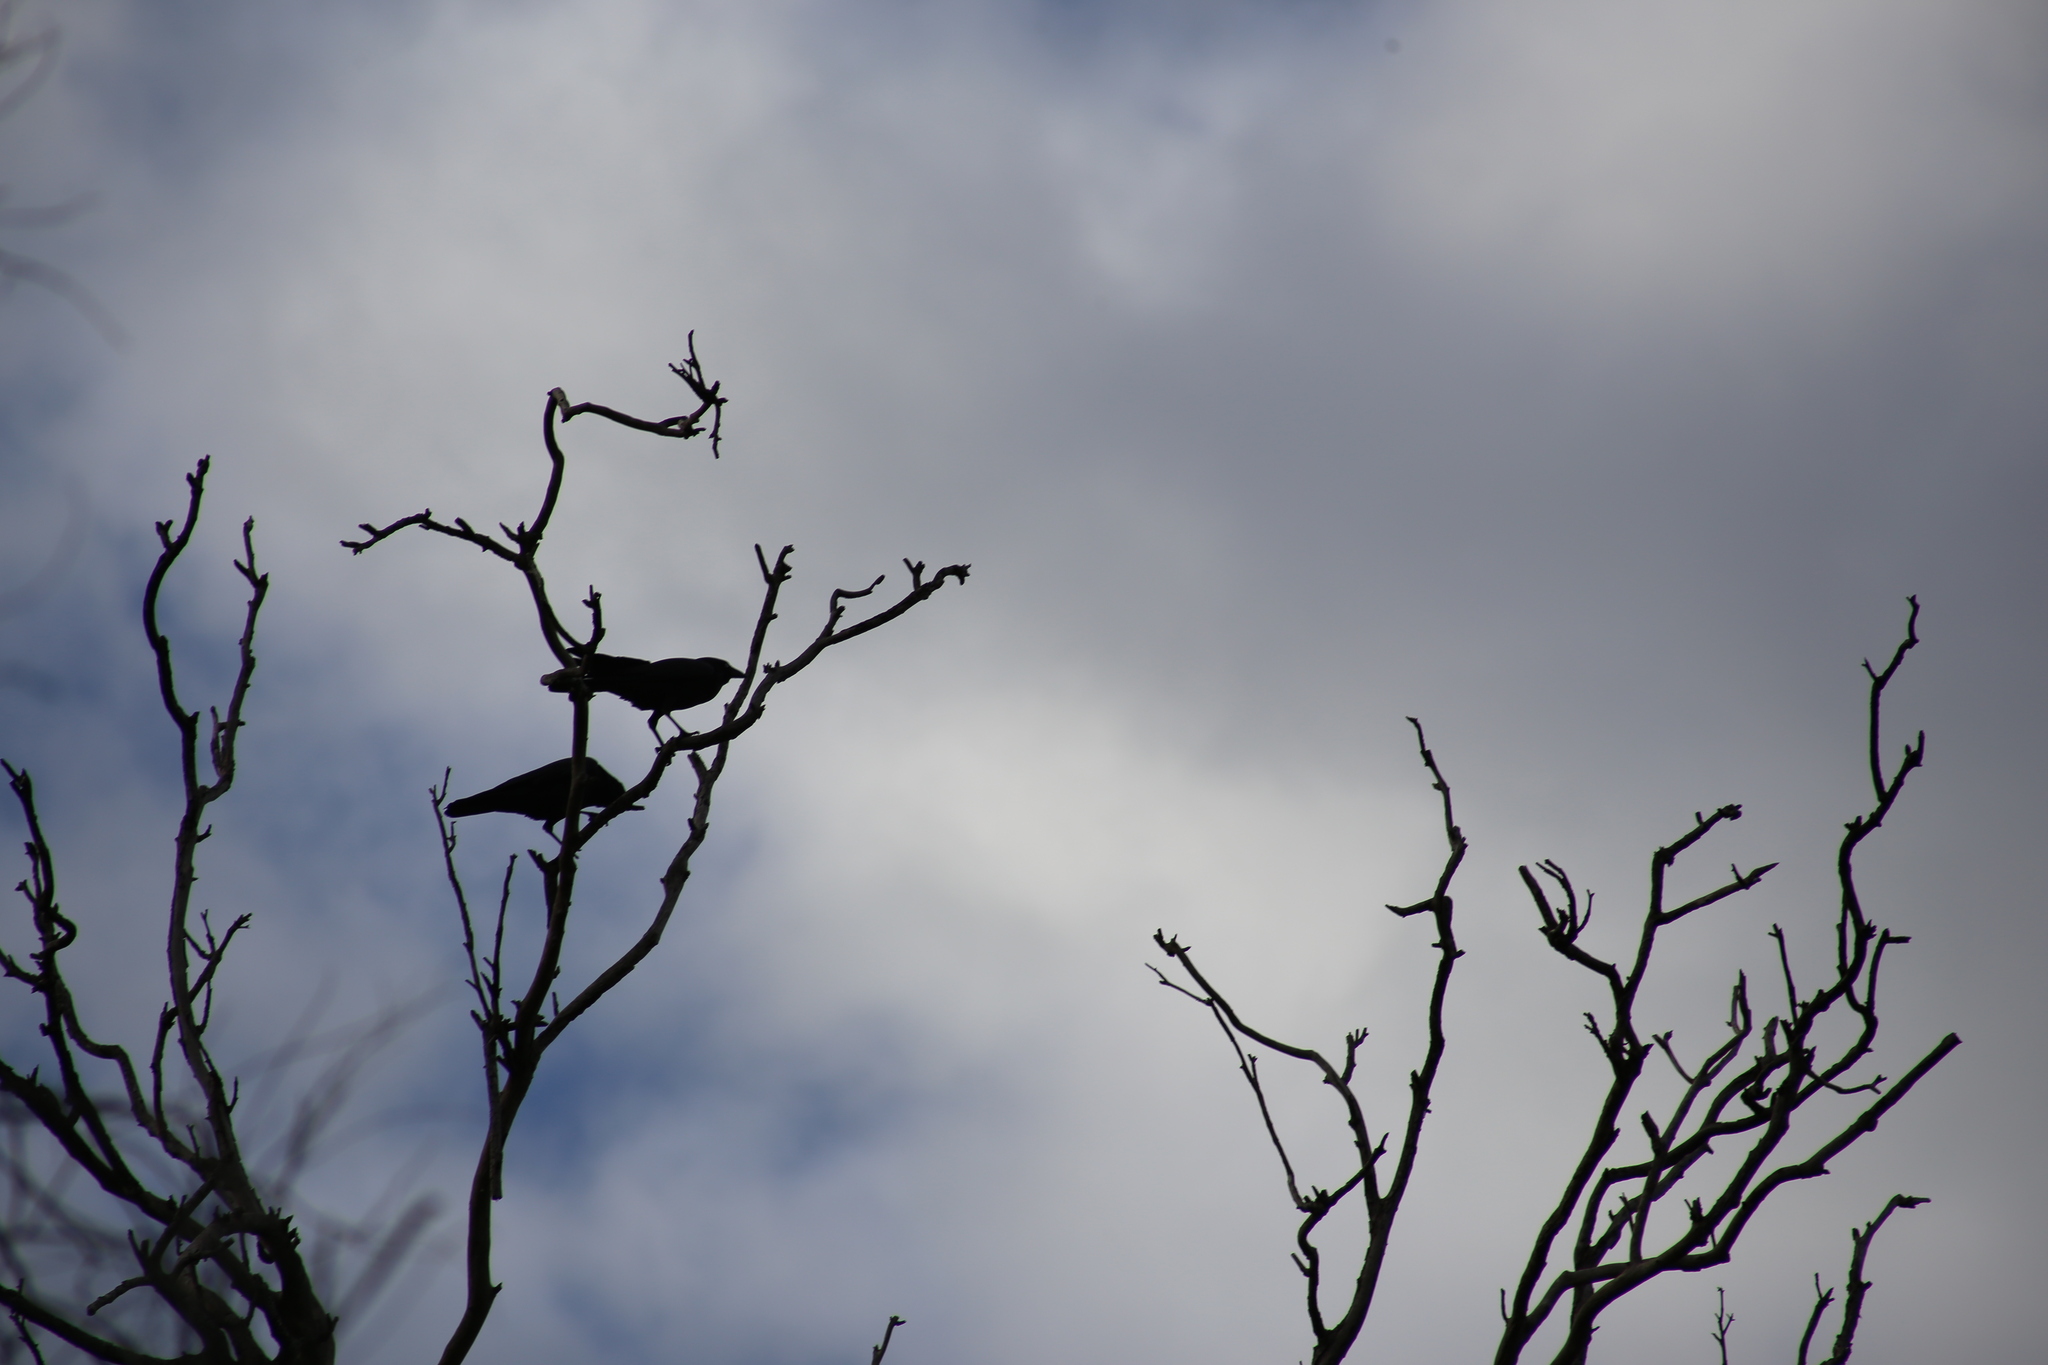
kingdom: Animalia
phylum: Chordata
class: Aves
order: Passeriformes
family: Corvidae
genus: Corvus
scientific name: Corvus orru
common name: Torresian crow
